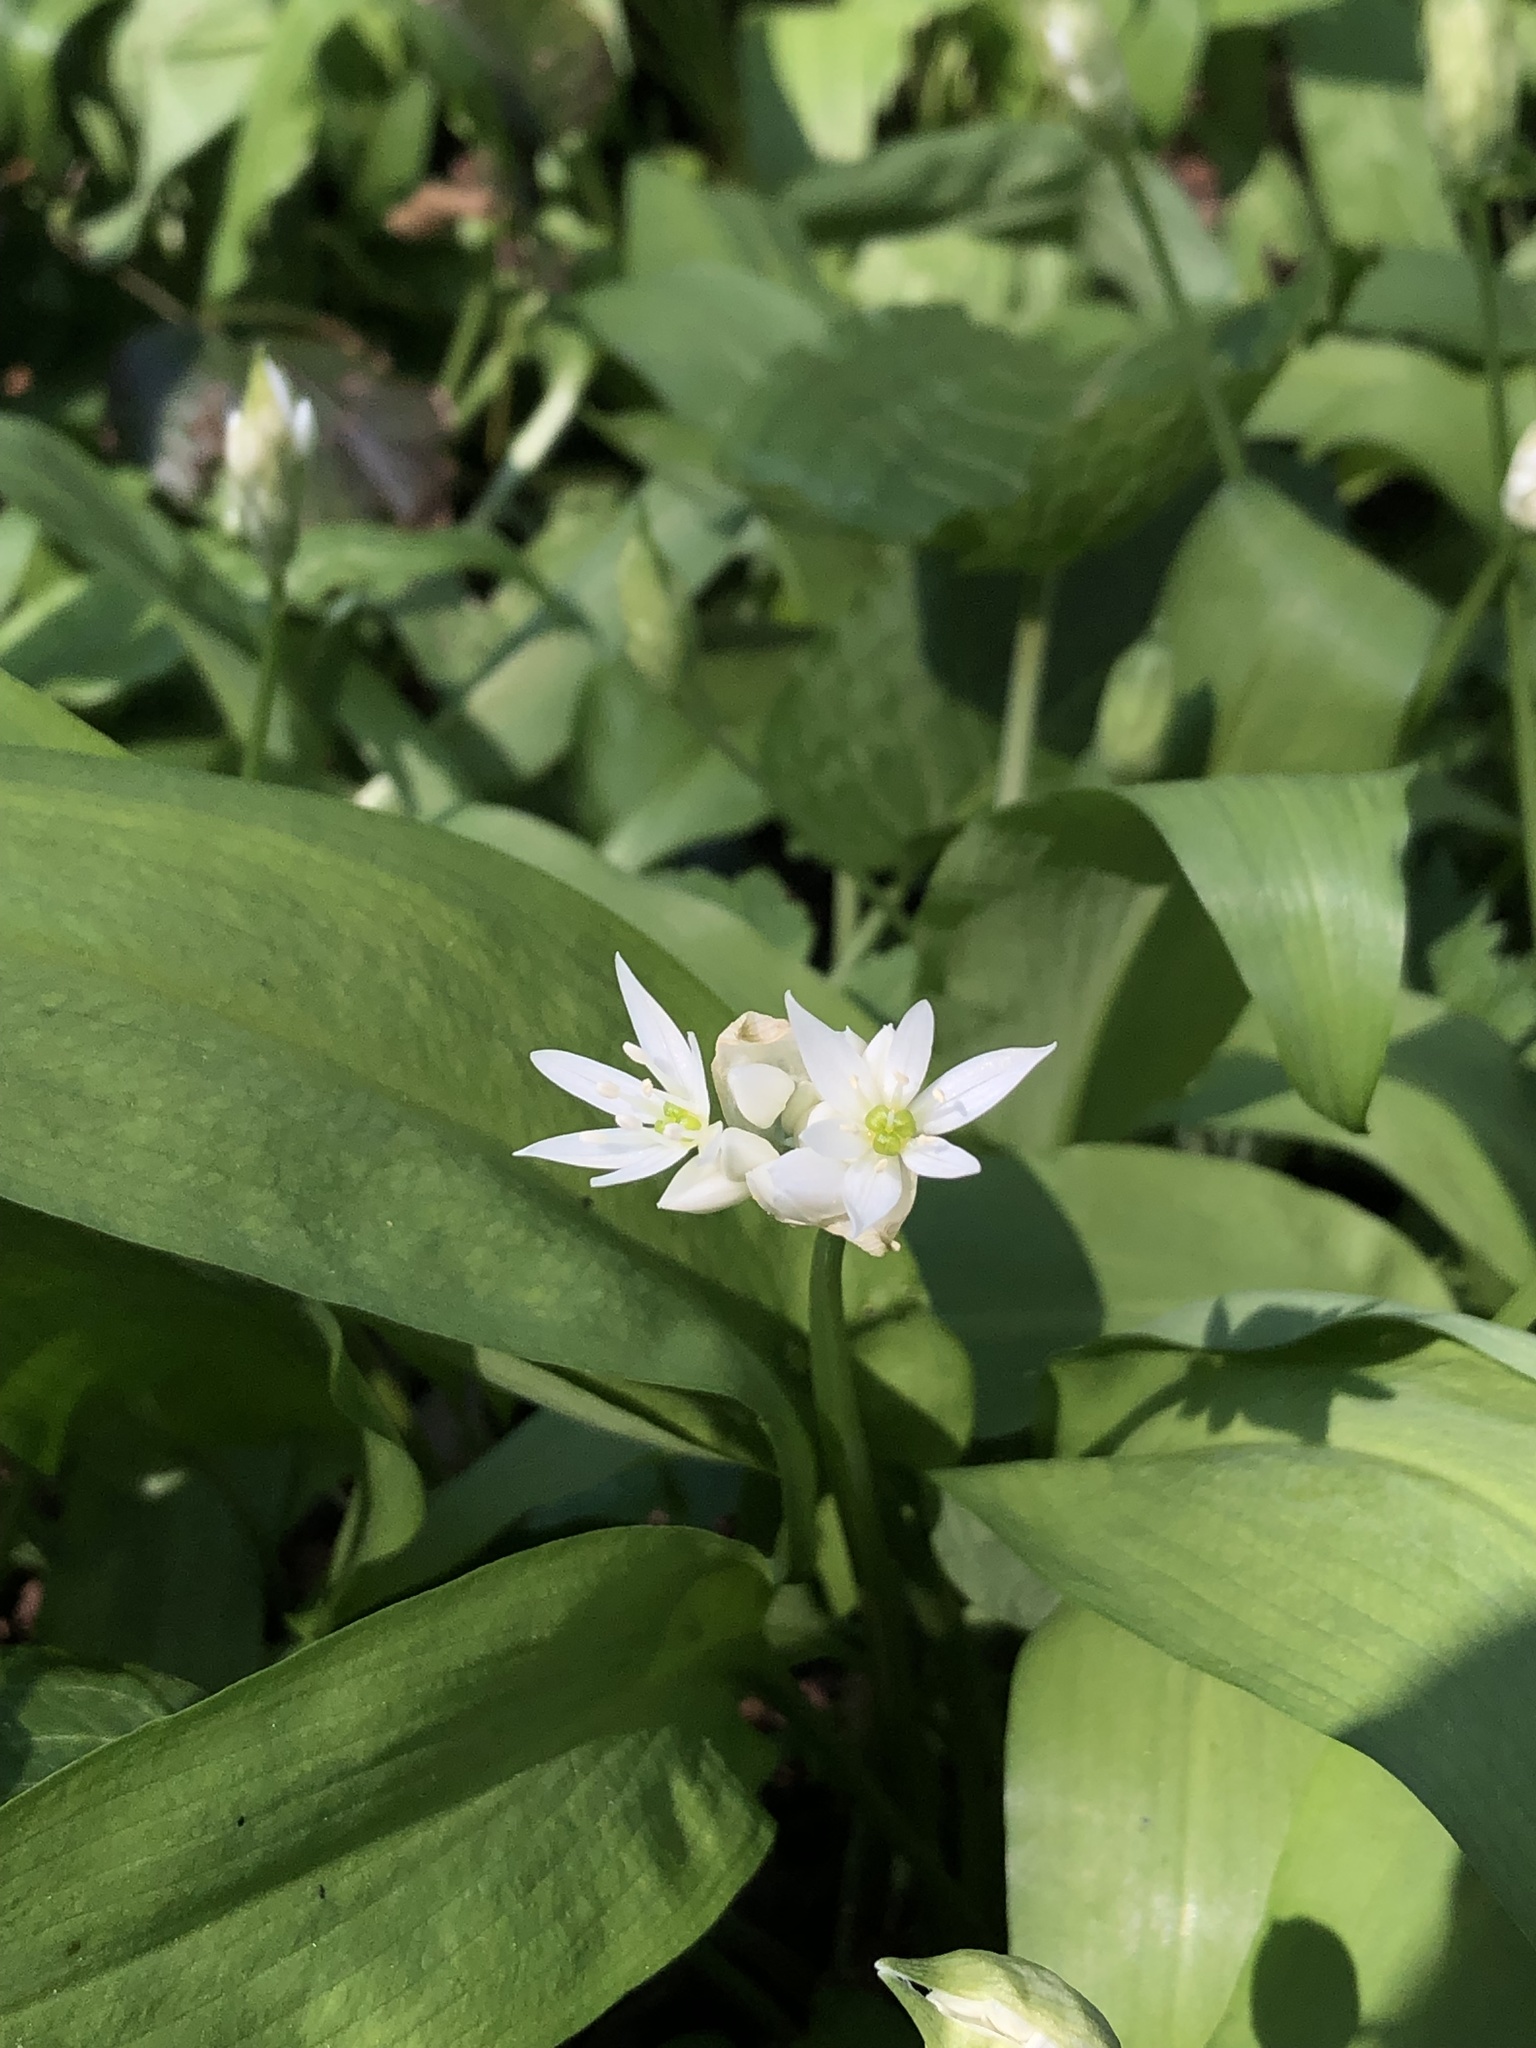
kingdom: Plantae
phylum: Tracheophyta
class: Liliopsida
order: Asparagales
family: Amaryllidaceae
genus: Allium
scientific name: Allium ursinum
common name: Ramsons
